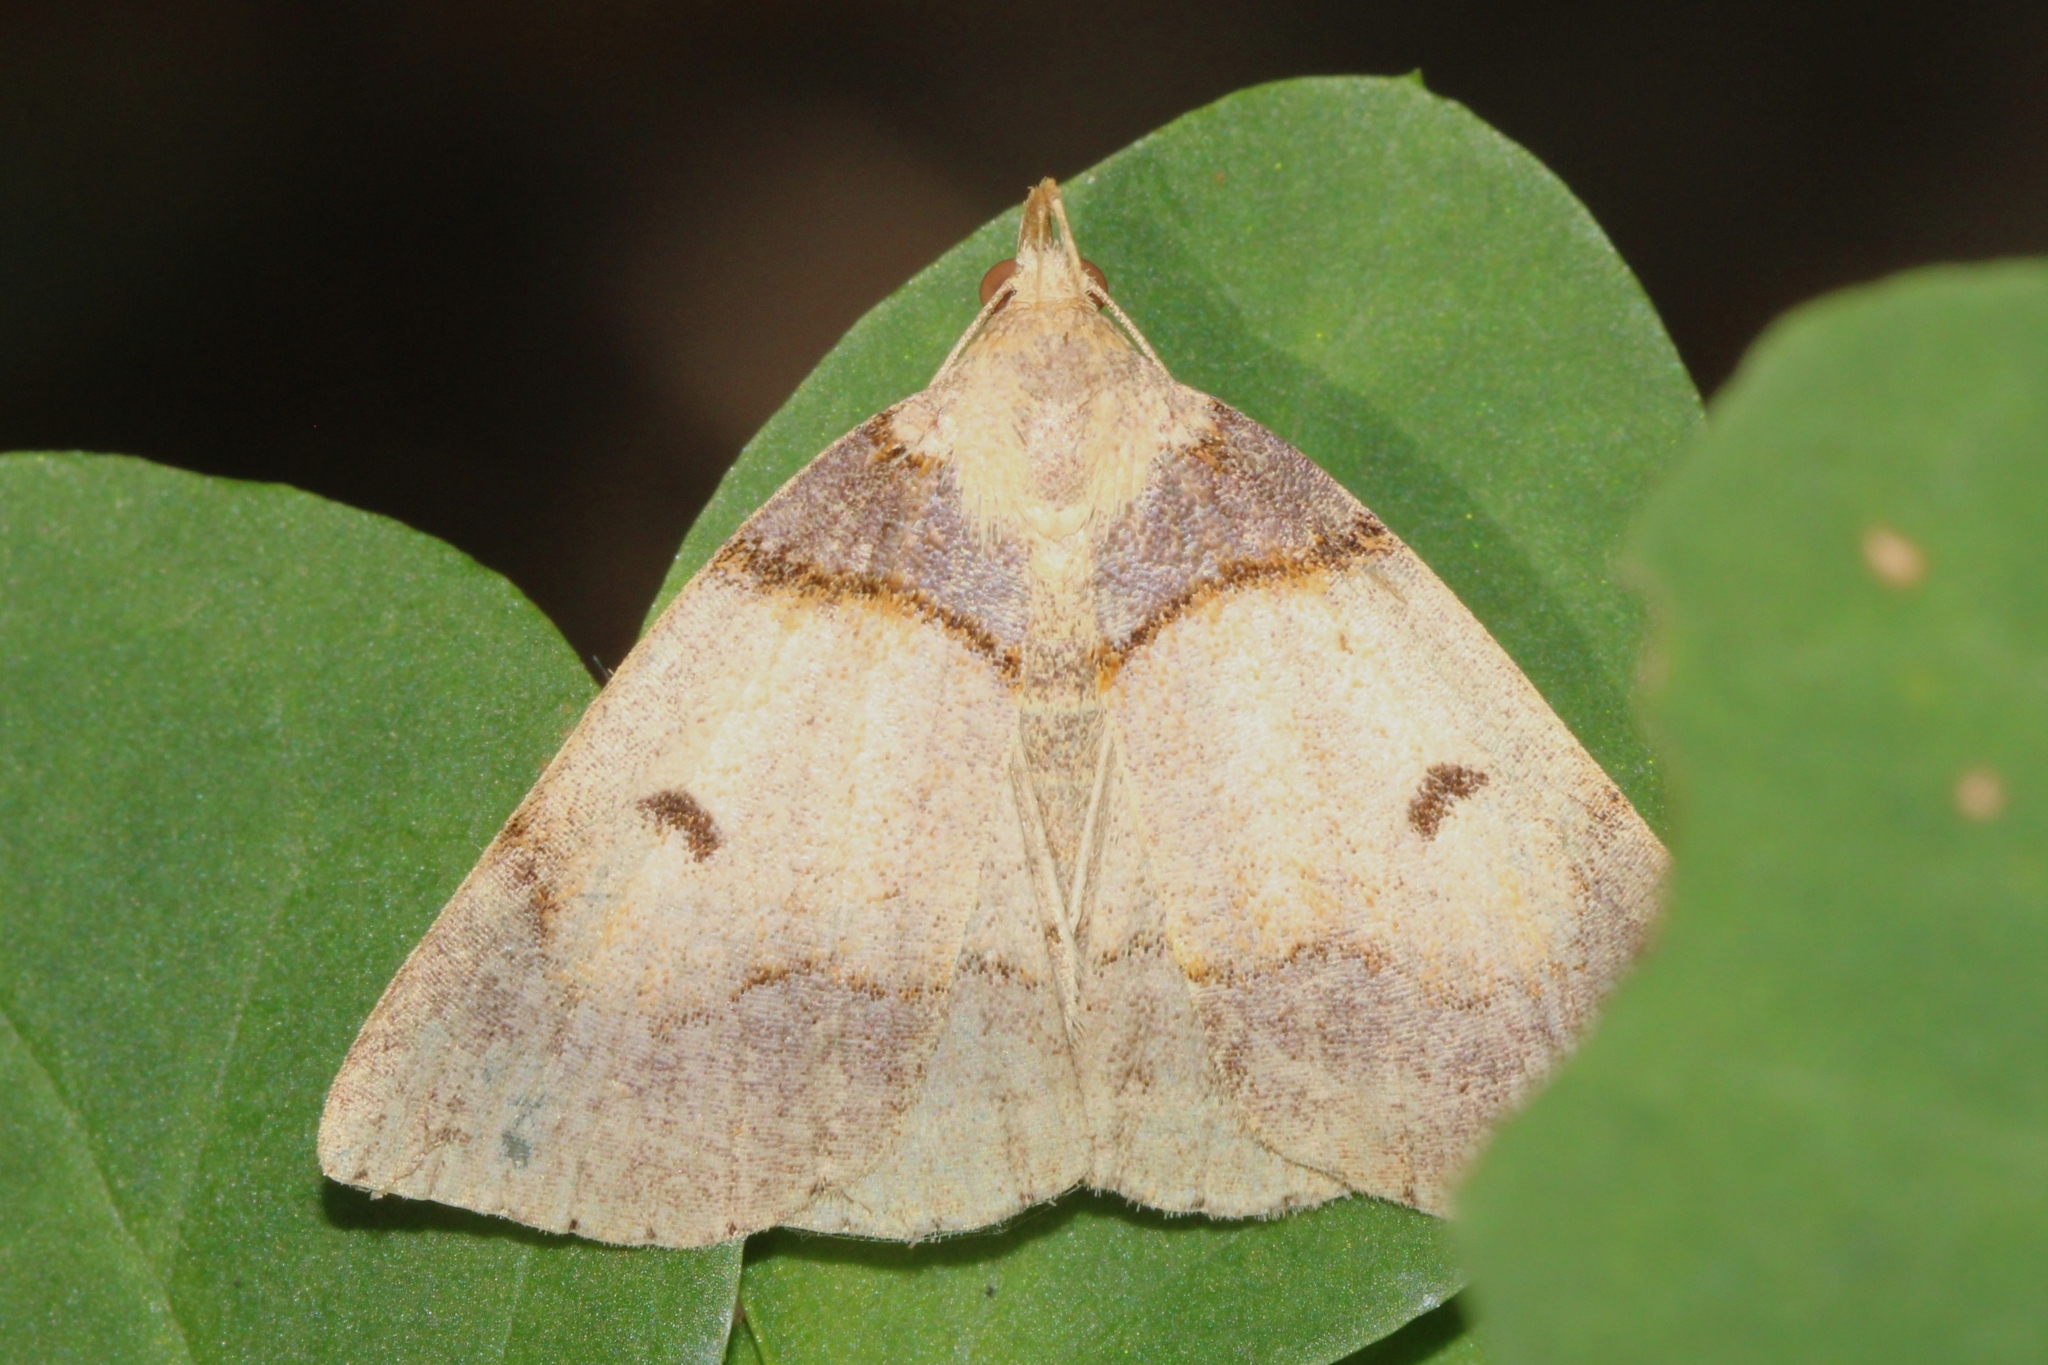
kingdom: Animalia
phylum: Arthropoda
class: Insecta
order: Lepidoptera
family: Erebidae
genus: Zanclognatha
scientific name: Zanclognatha laevigata
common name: Variable fan-foot
